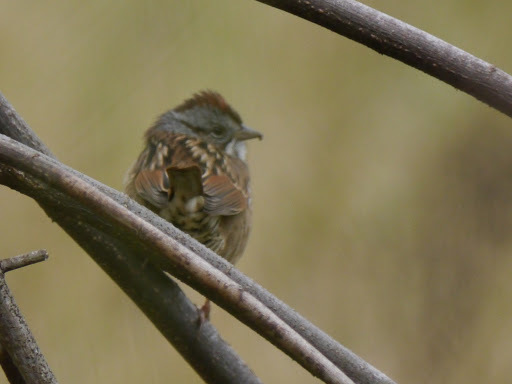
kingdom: Animalia
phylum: Chordata
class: Aves
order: Passeriformes
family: Passerellidae
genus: Melospiza
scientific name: Melospiza georgiana
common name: Swamp sparrow
